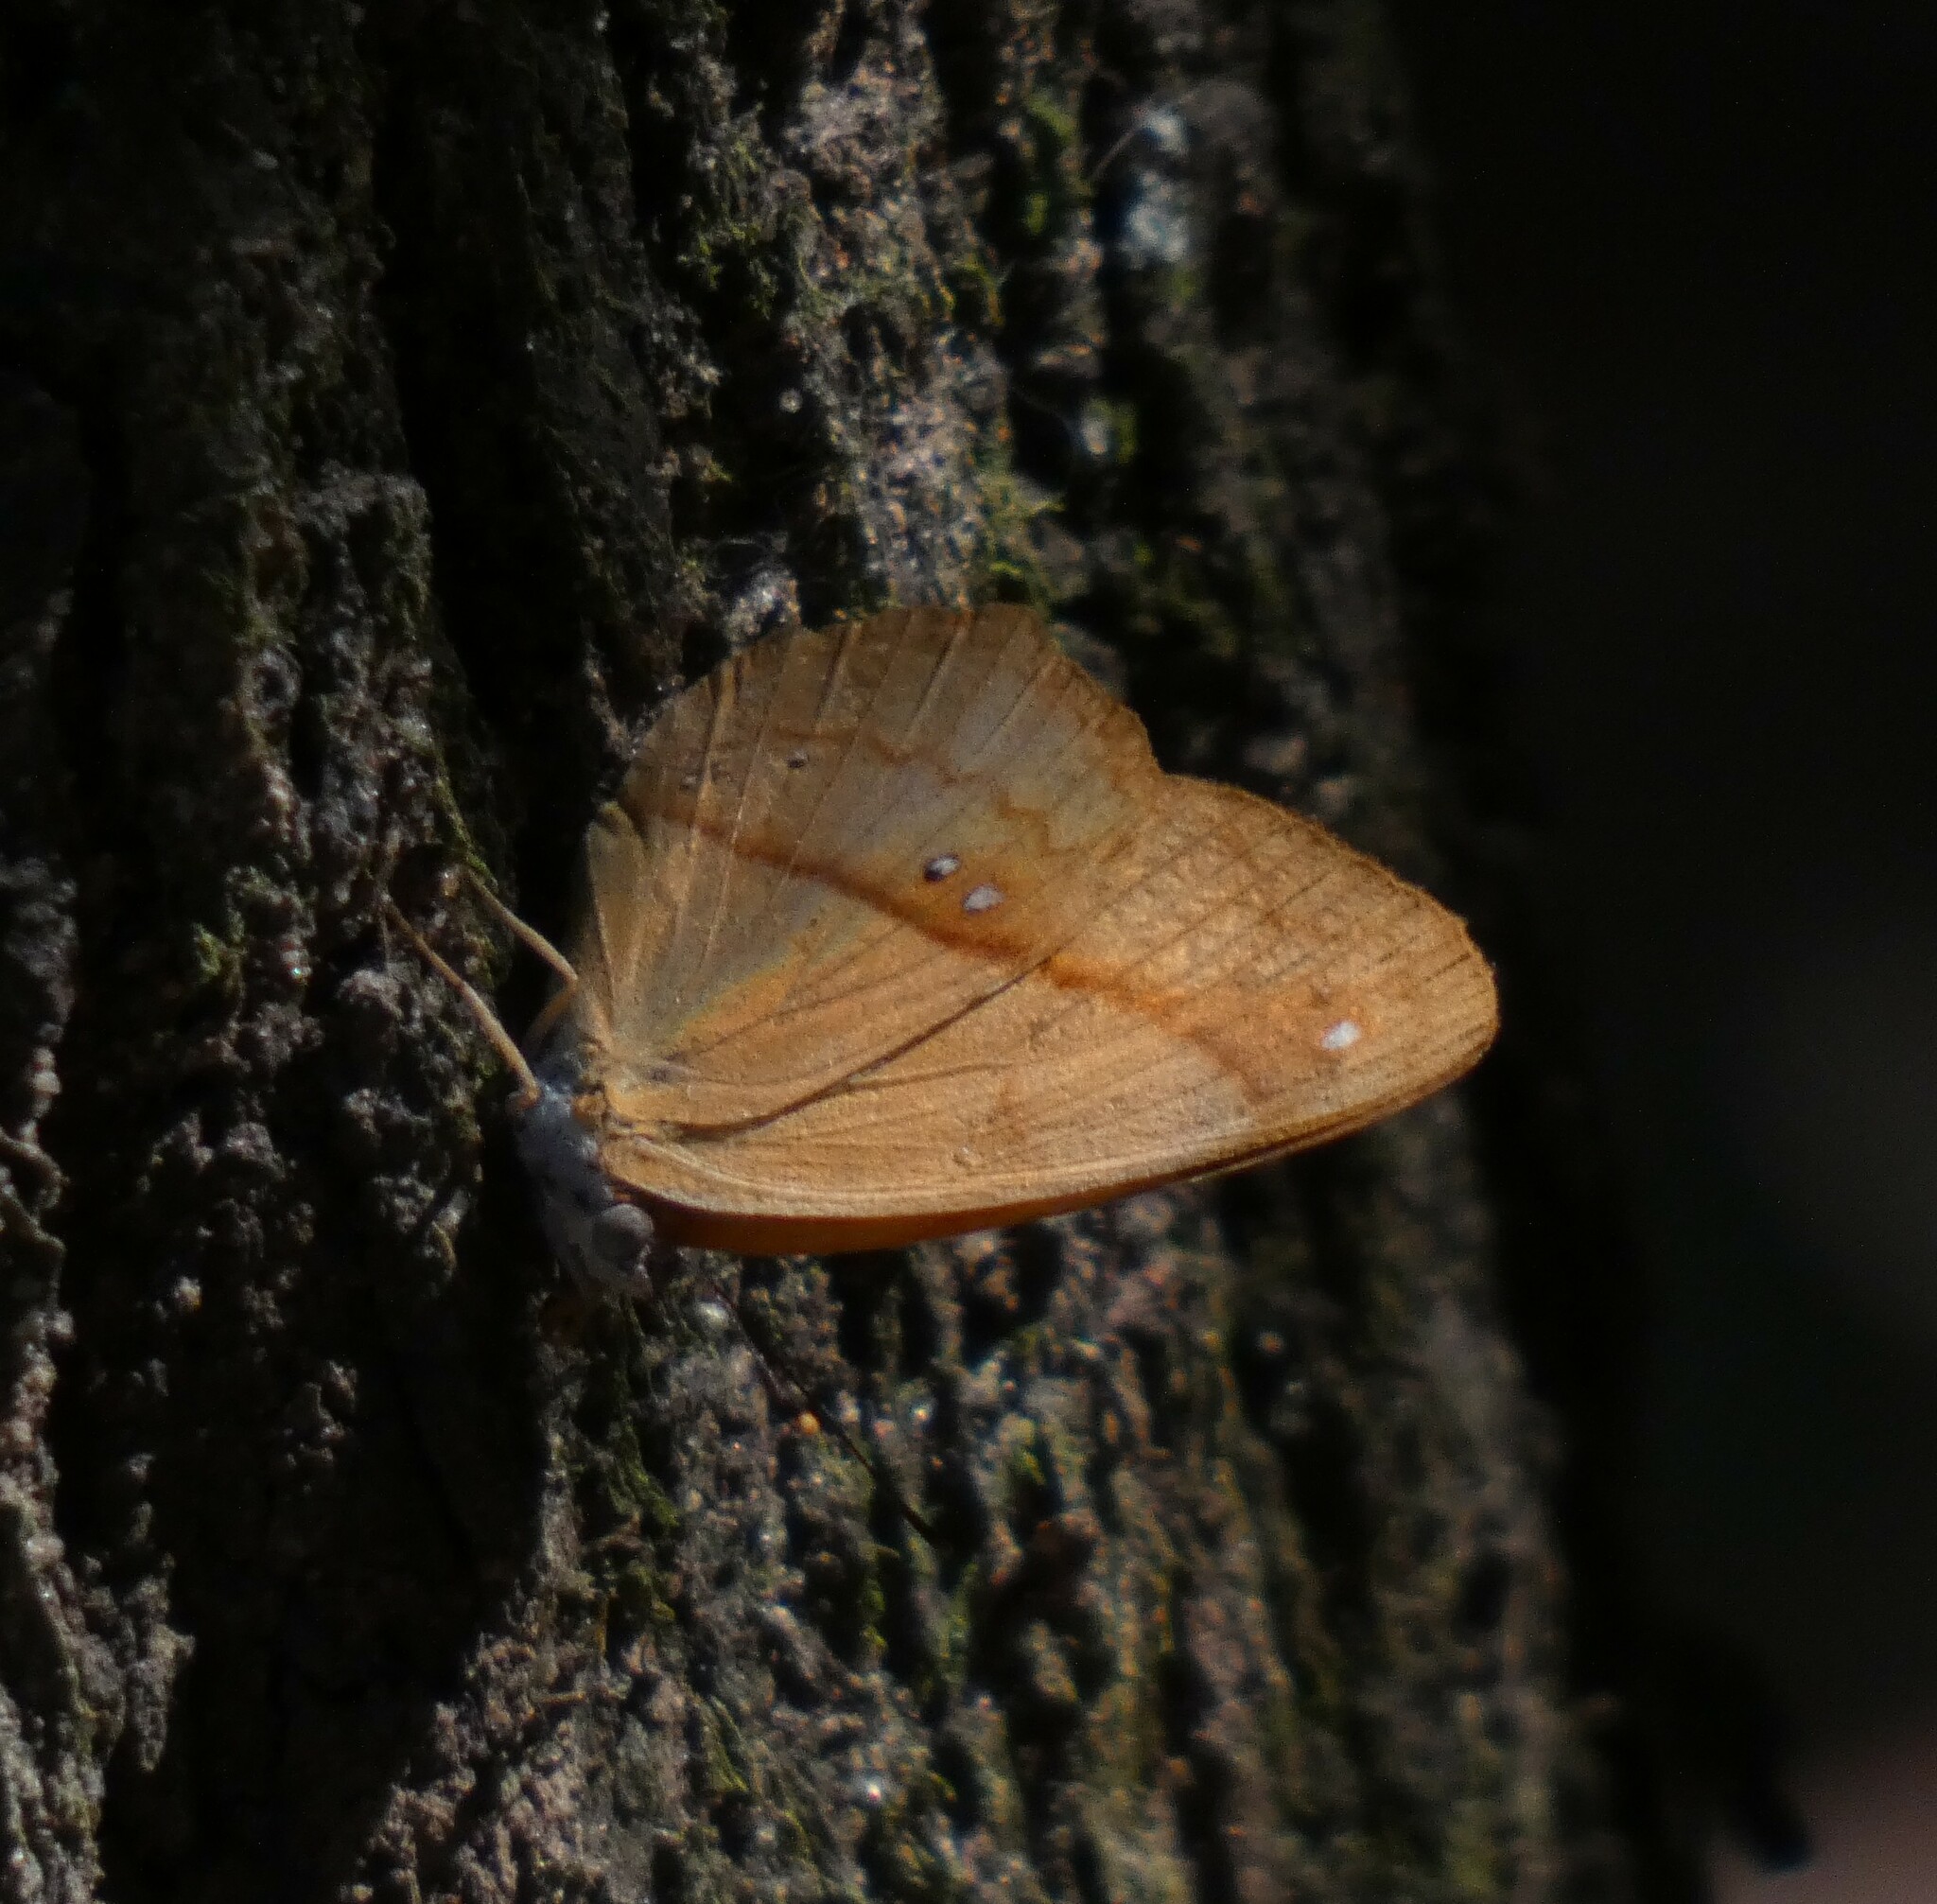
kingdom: Animalia
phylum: Arthropoda
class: Insecta
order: Lepidoptera
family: Nymphalidae
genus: Nica
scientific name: Nica flavilla
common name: Mandarin nica
